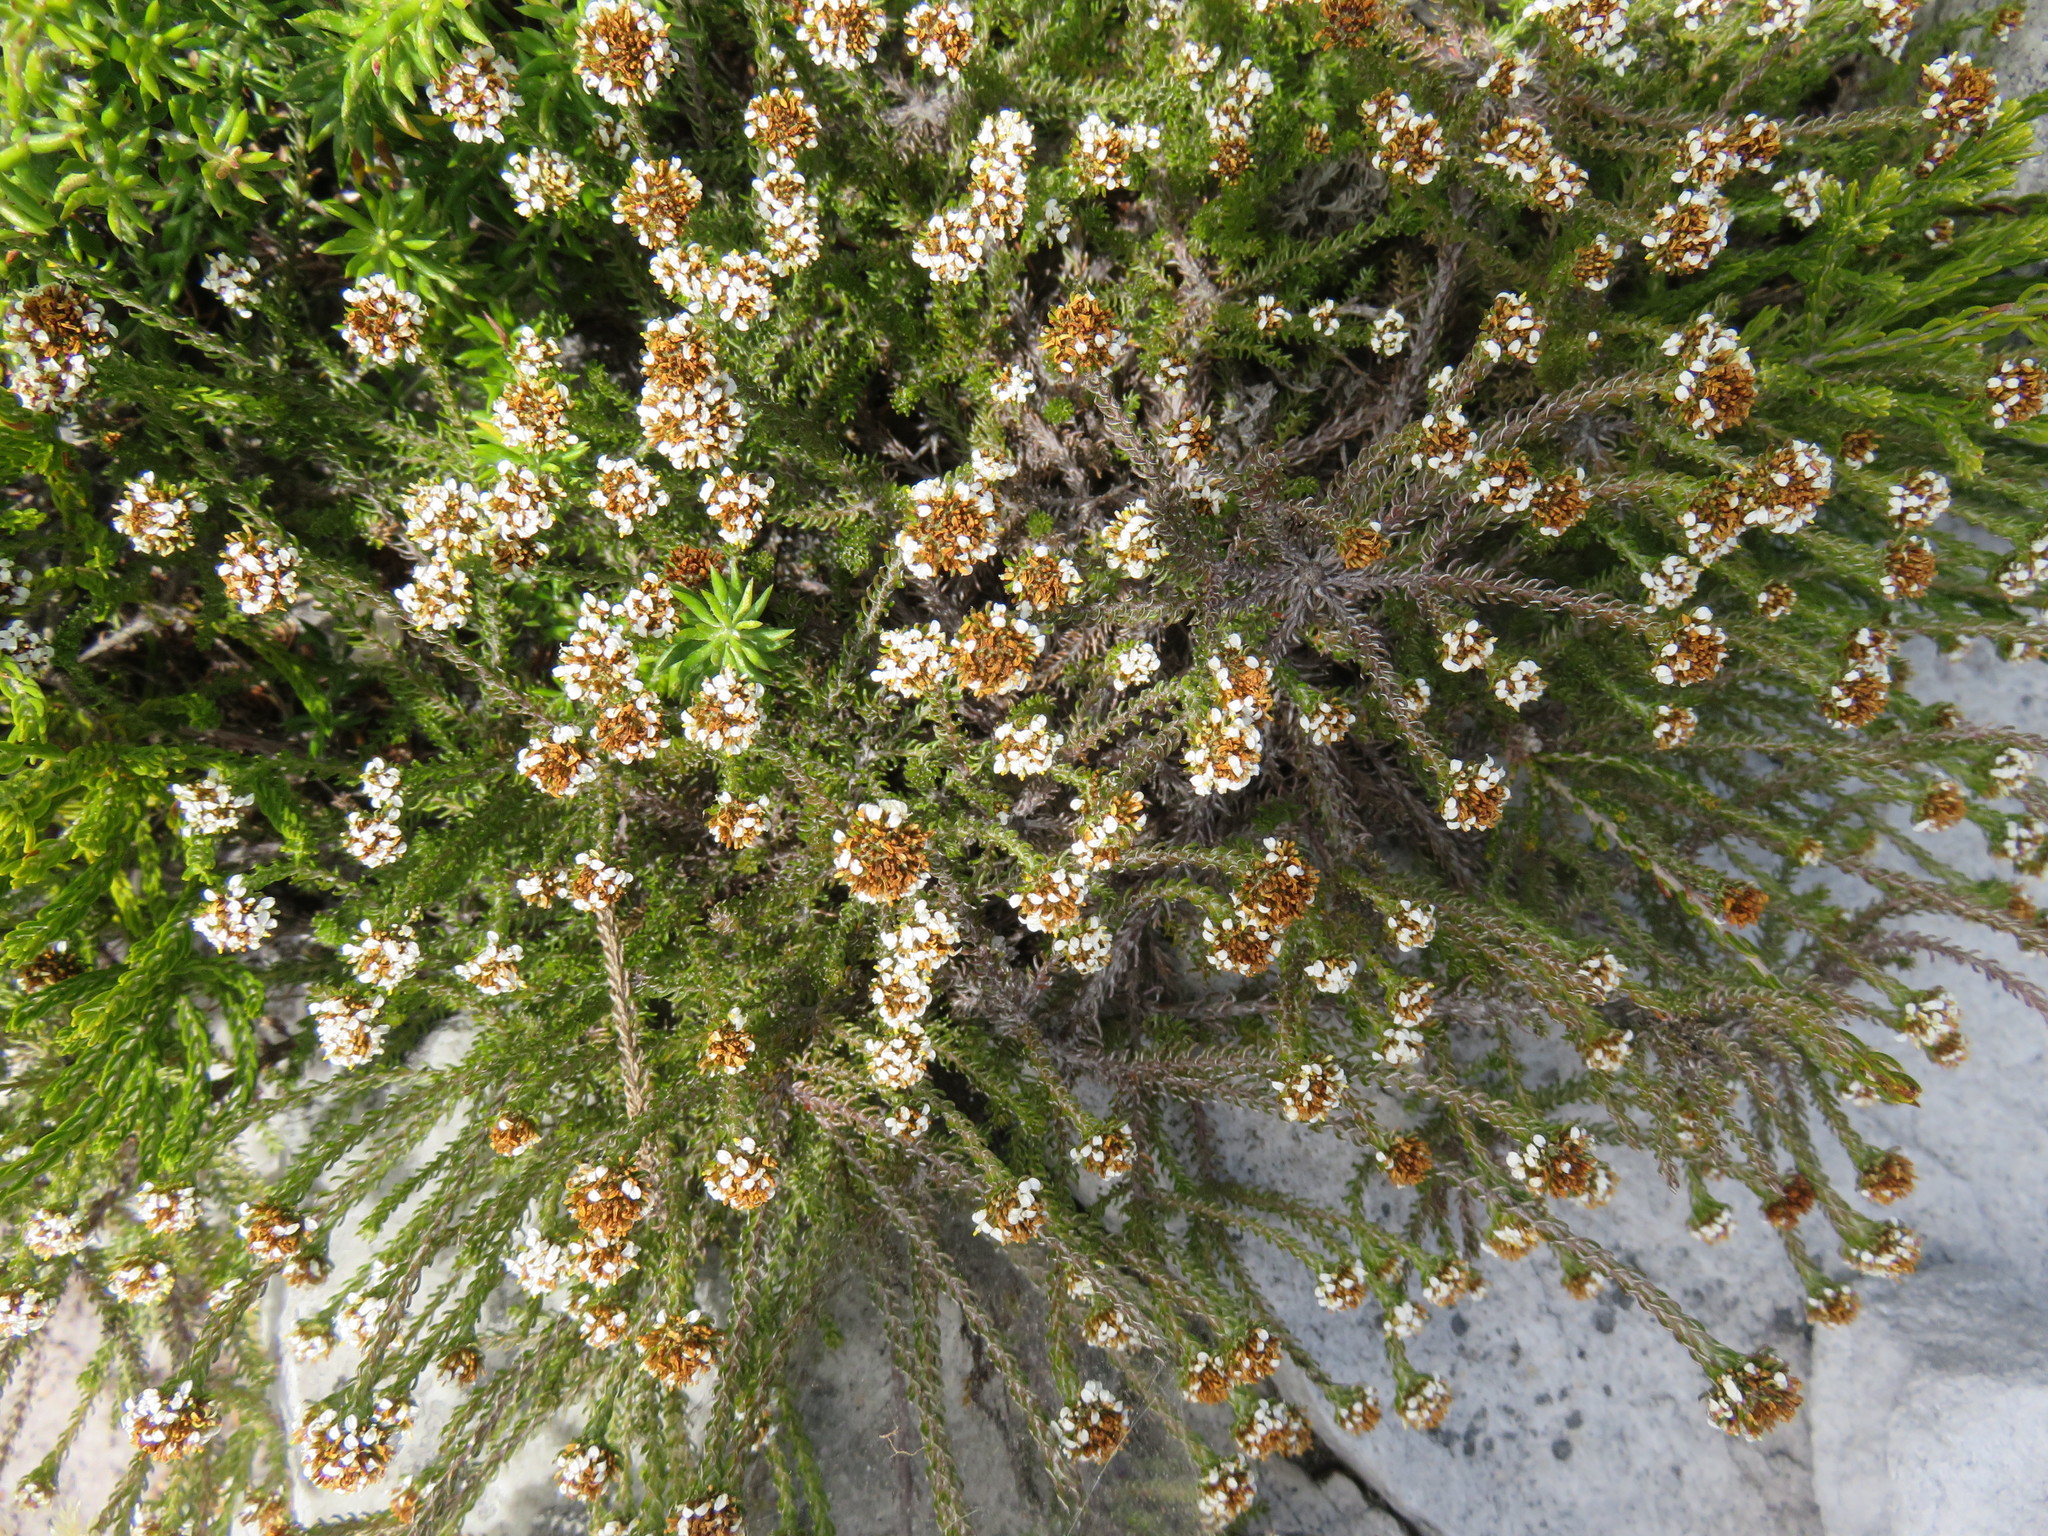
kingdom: Plantae
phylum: Tracheophyta
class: Magnoliopsida
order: Asterales
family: Asteraceae
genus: Disparago
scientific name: Disparago anomala
